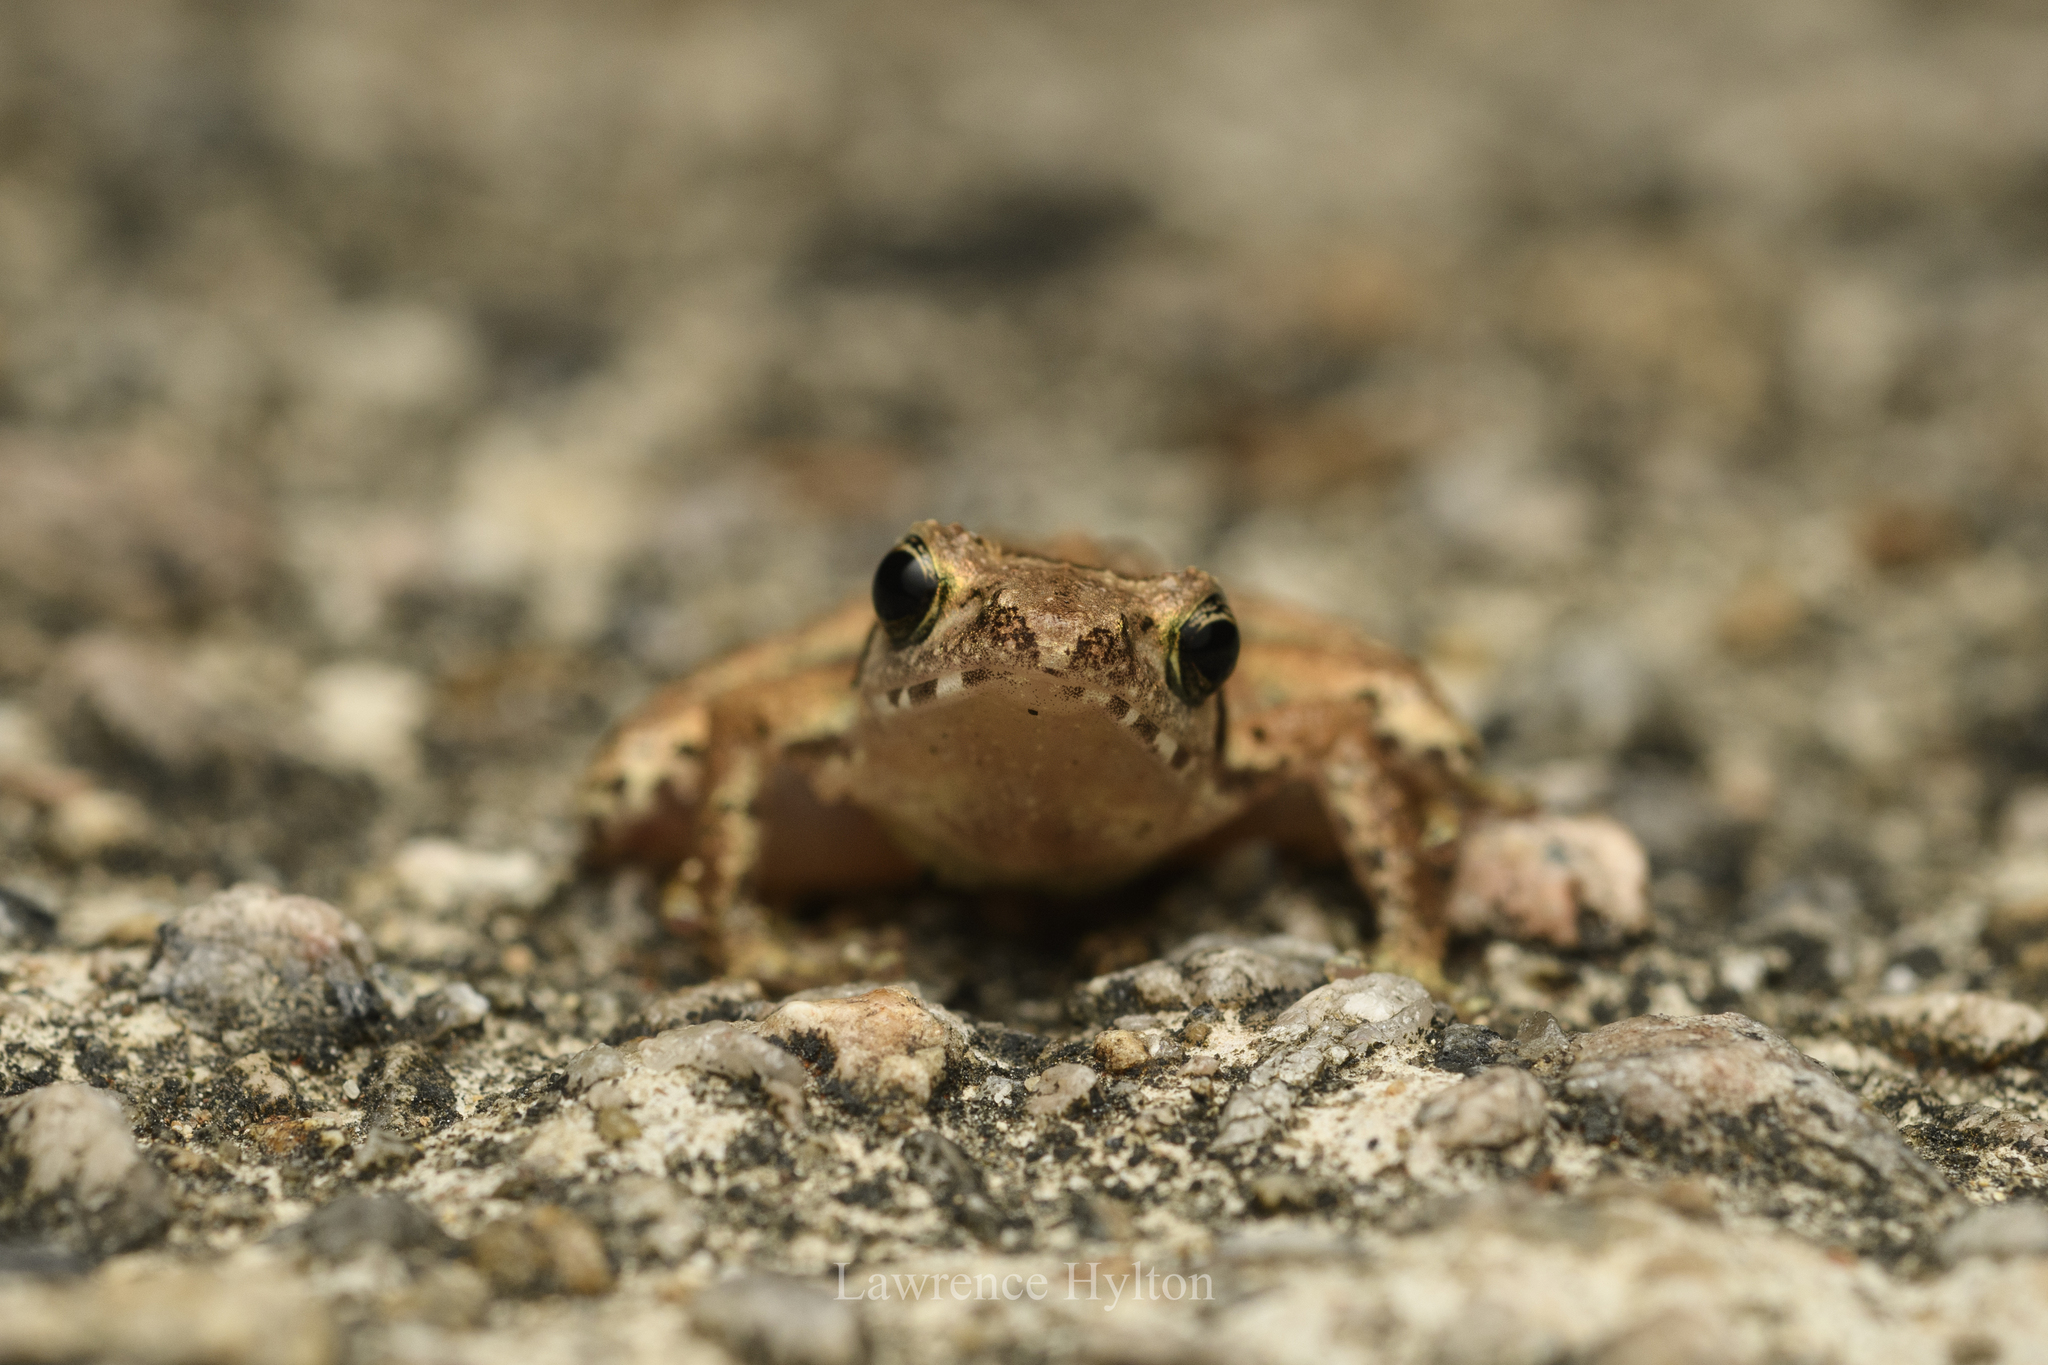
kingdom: Animalia
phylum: Chordata
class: Amphibia
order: Anura
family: Rhacophoridae
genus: Liuixalus
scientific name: Liuixalus romeri
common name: Romer's bubble-nest frog
